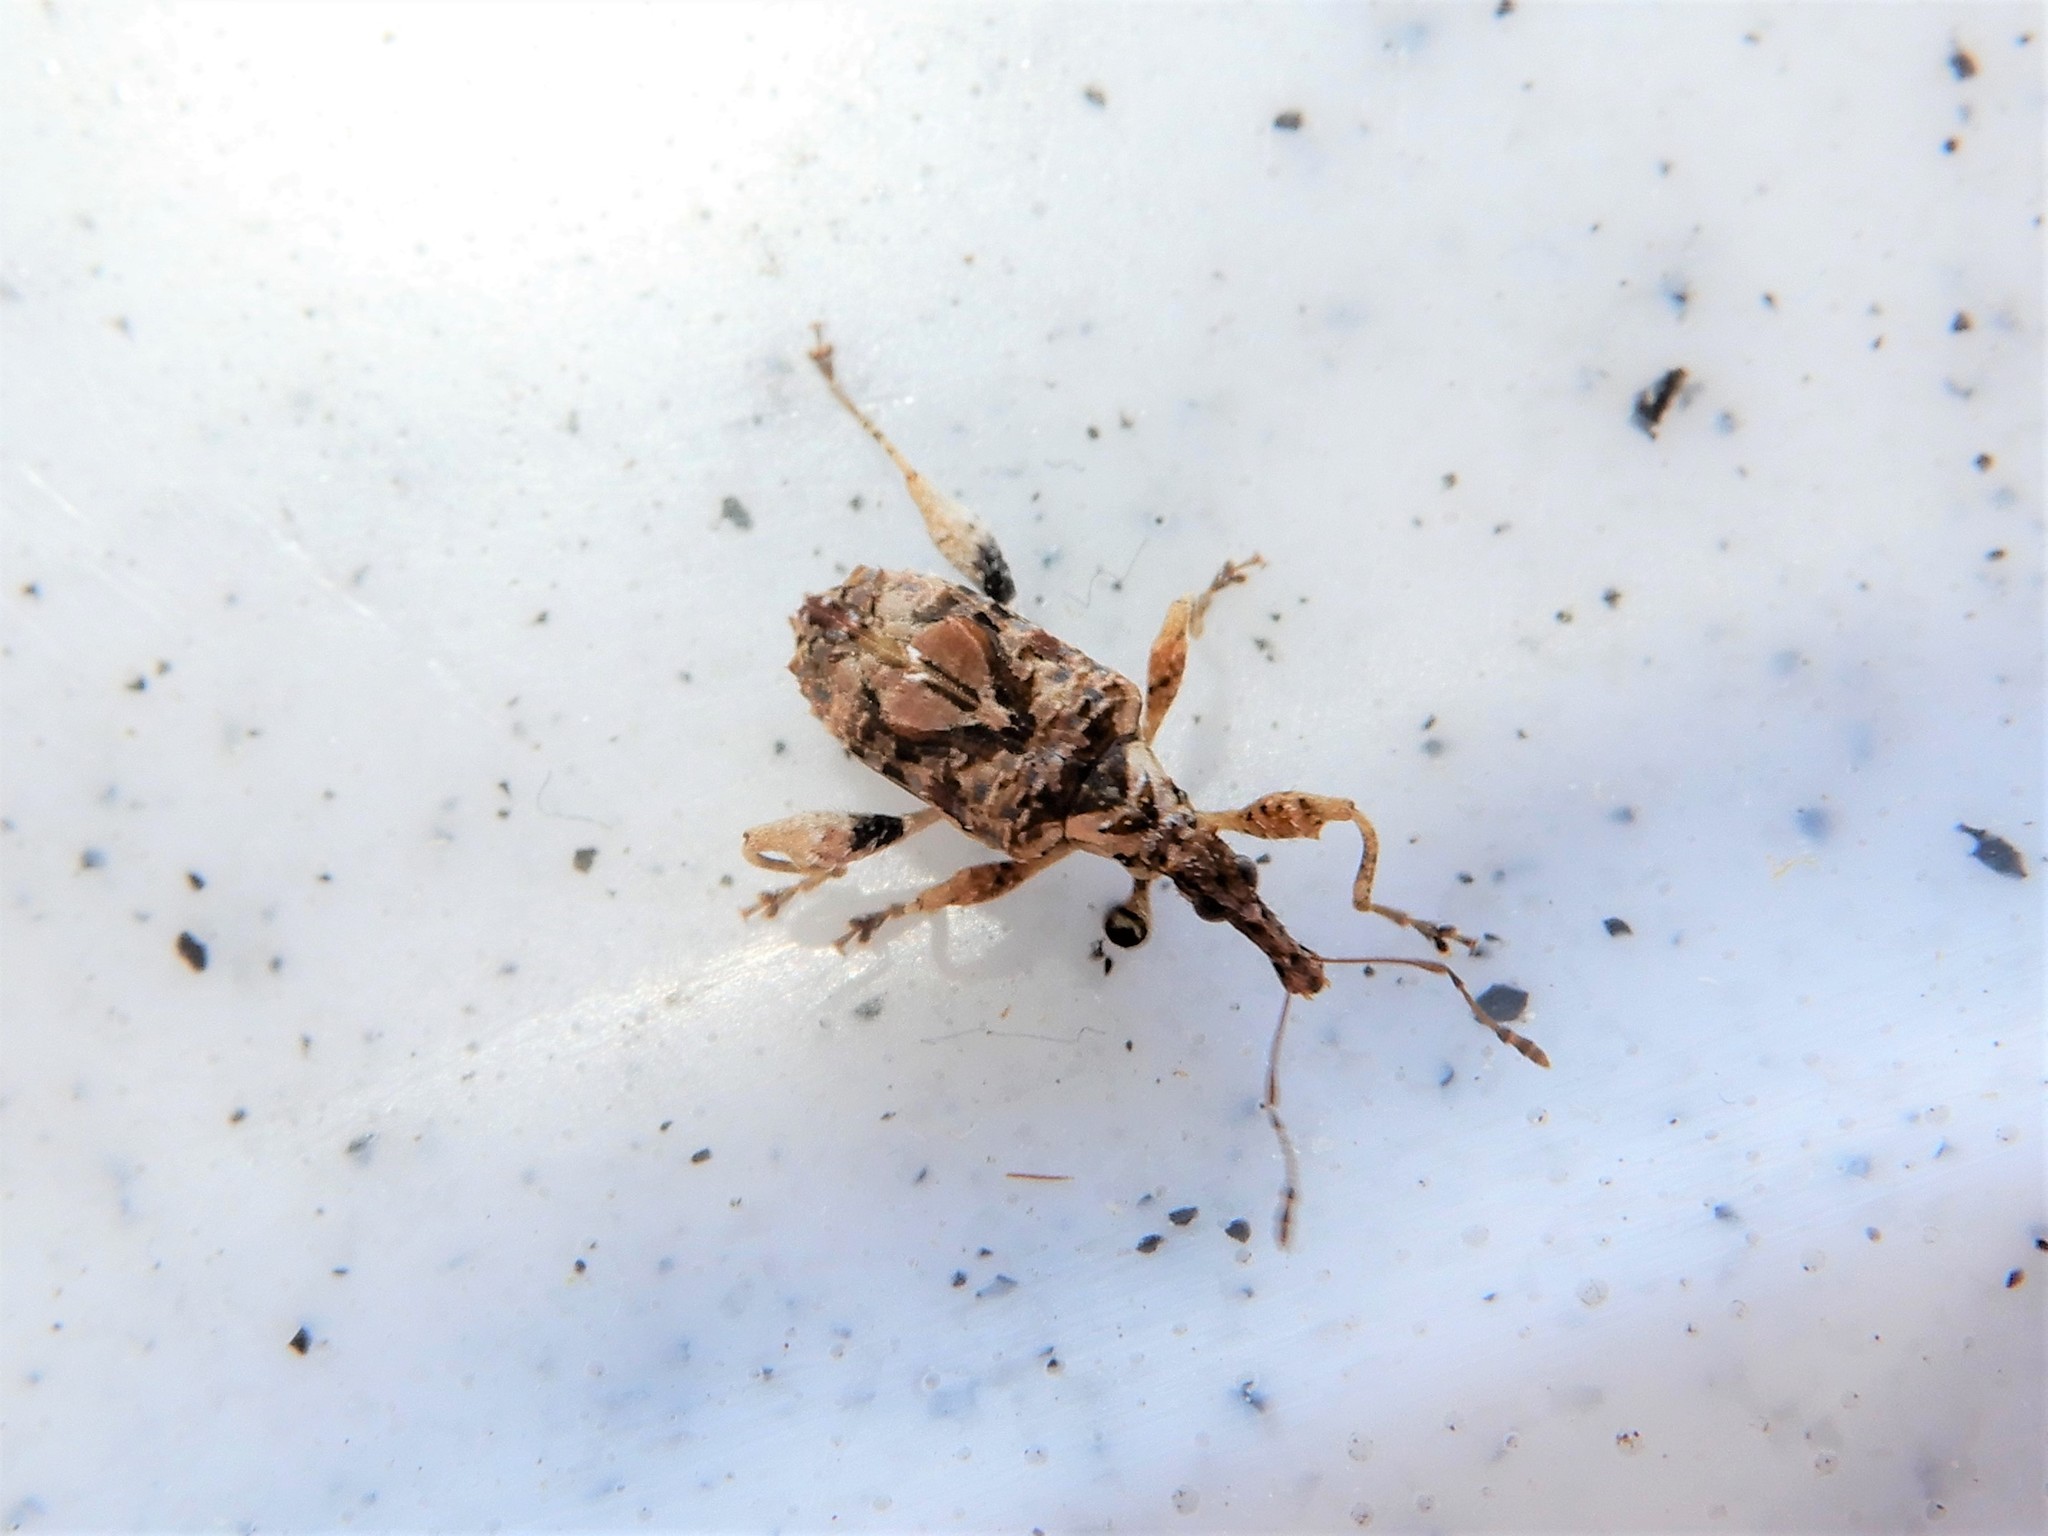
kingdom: Animalia
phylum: Arthropoda
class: Insecta
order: Coleoptera
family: Curculionidae
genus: Stephanorhynchus
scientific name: Stephanorhynchus curvipes
